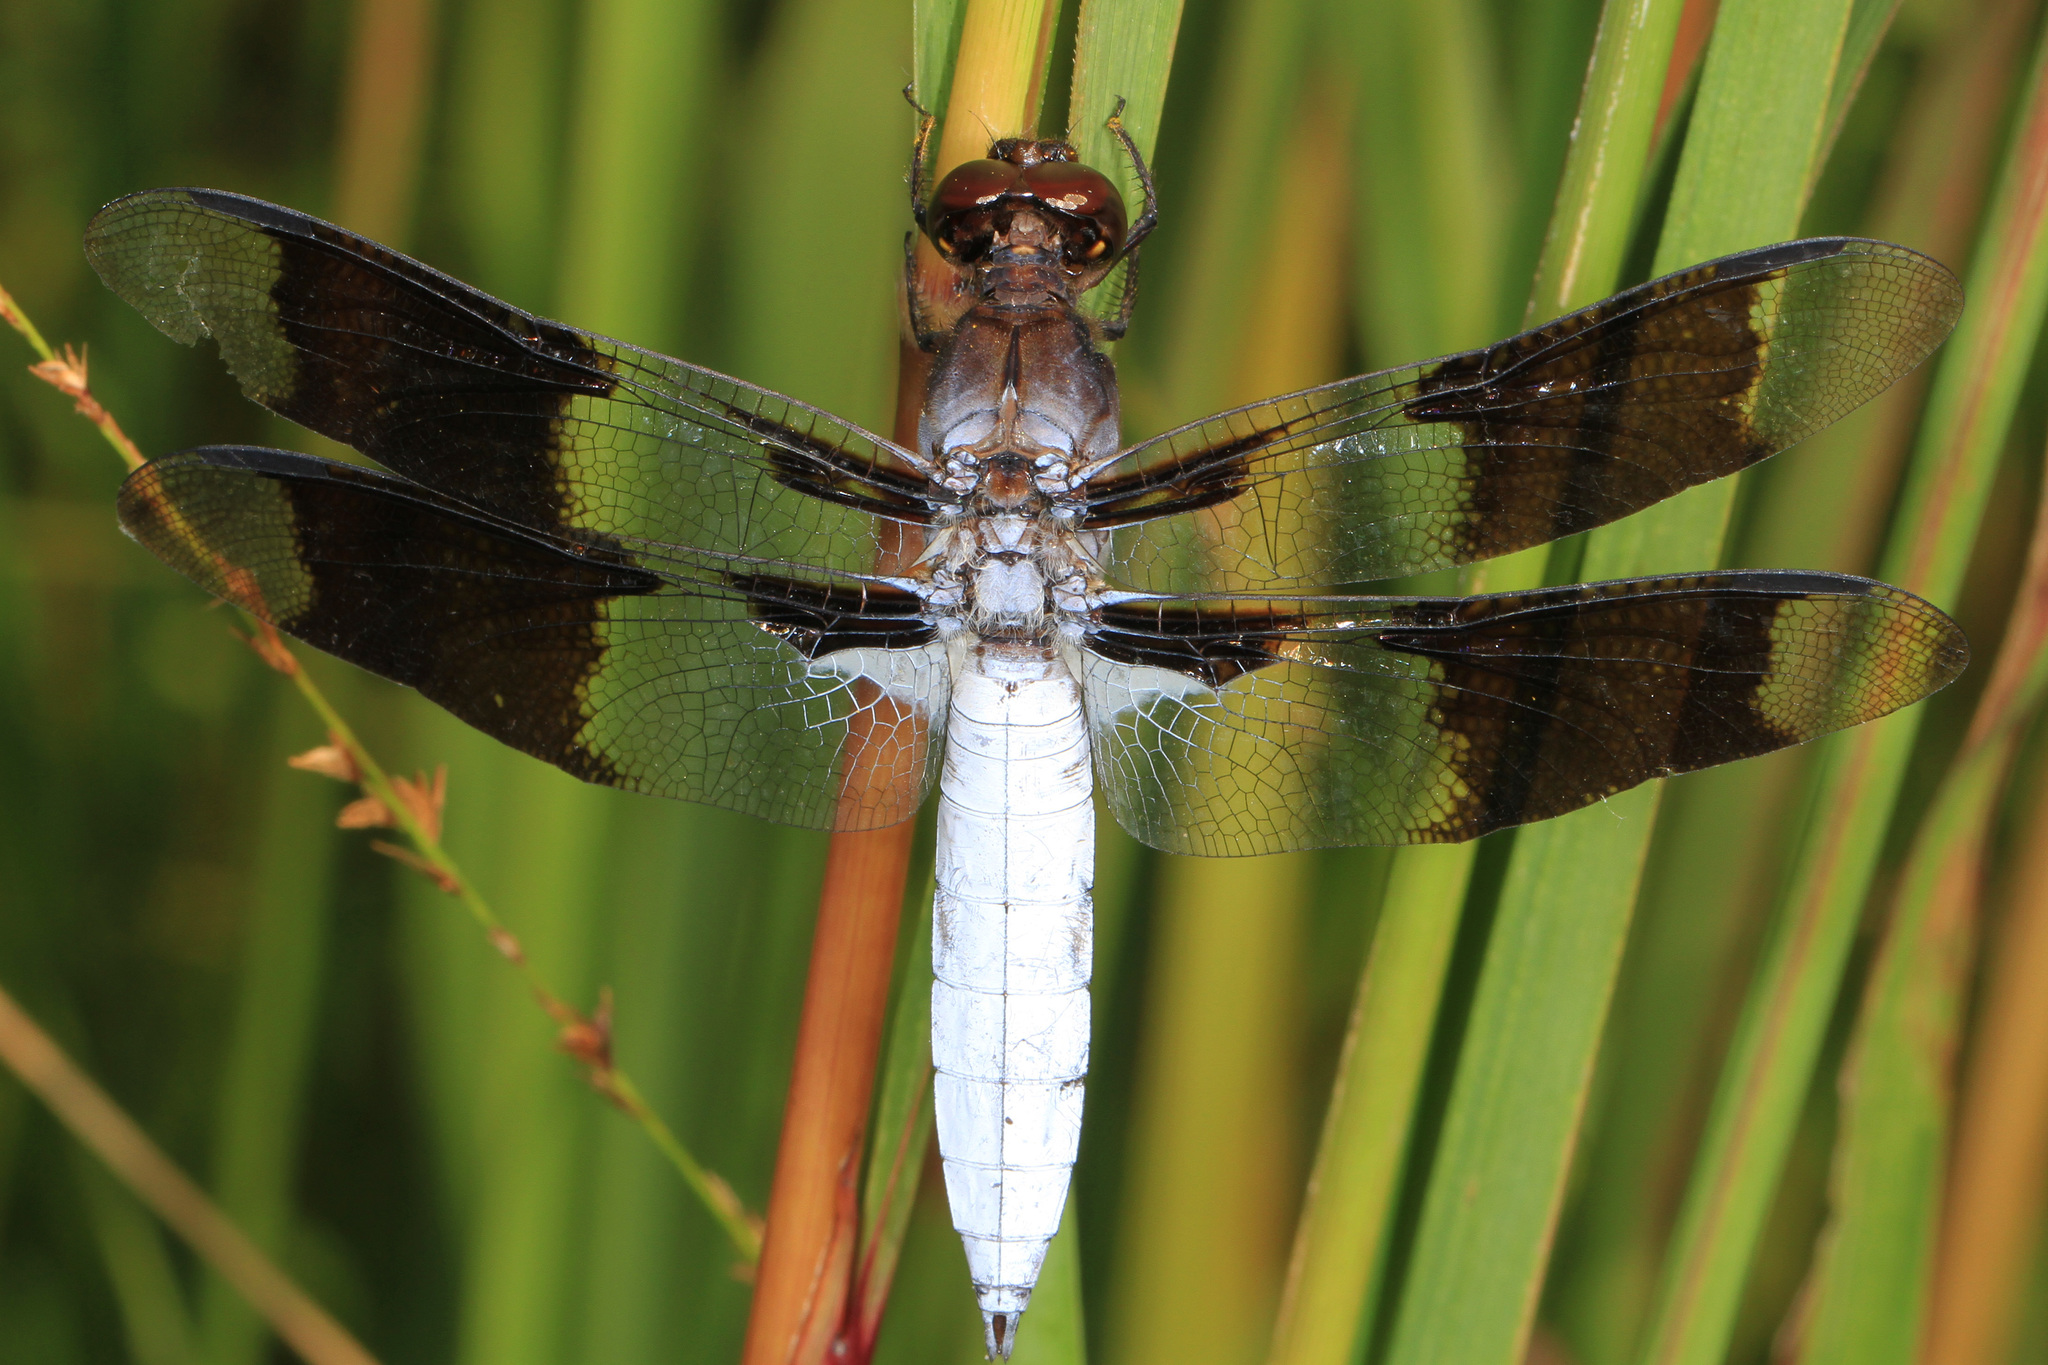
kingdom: Animalia
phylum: Arthropoda
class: Insecta
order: Odonata
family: Libellulidae
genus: Plathemis
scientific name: Plathemis lydia
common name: Common whitetail
